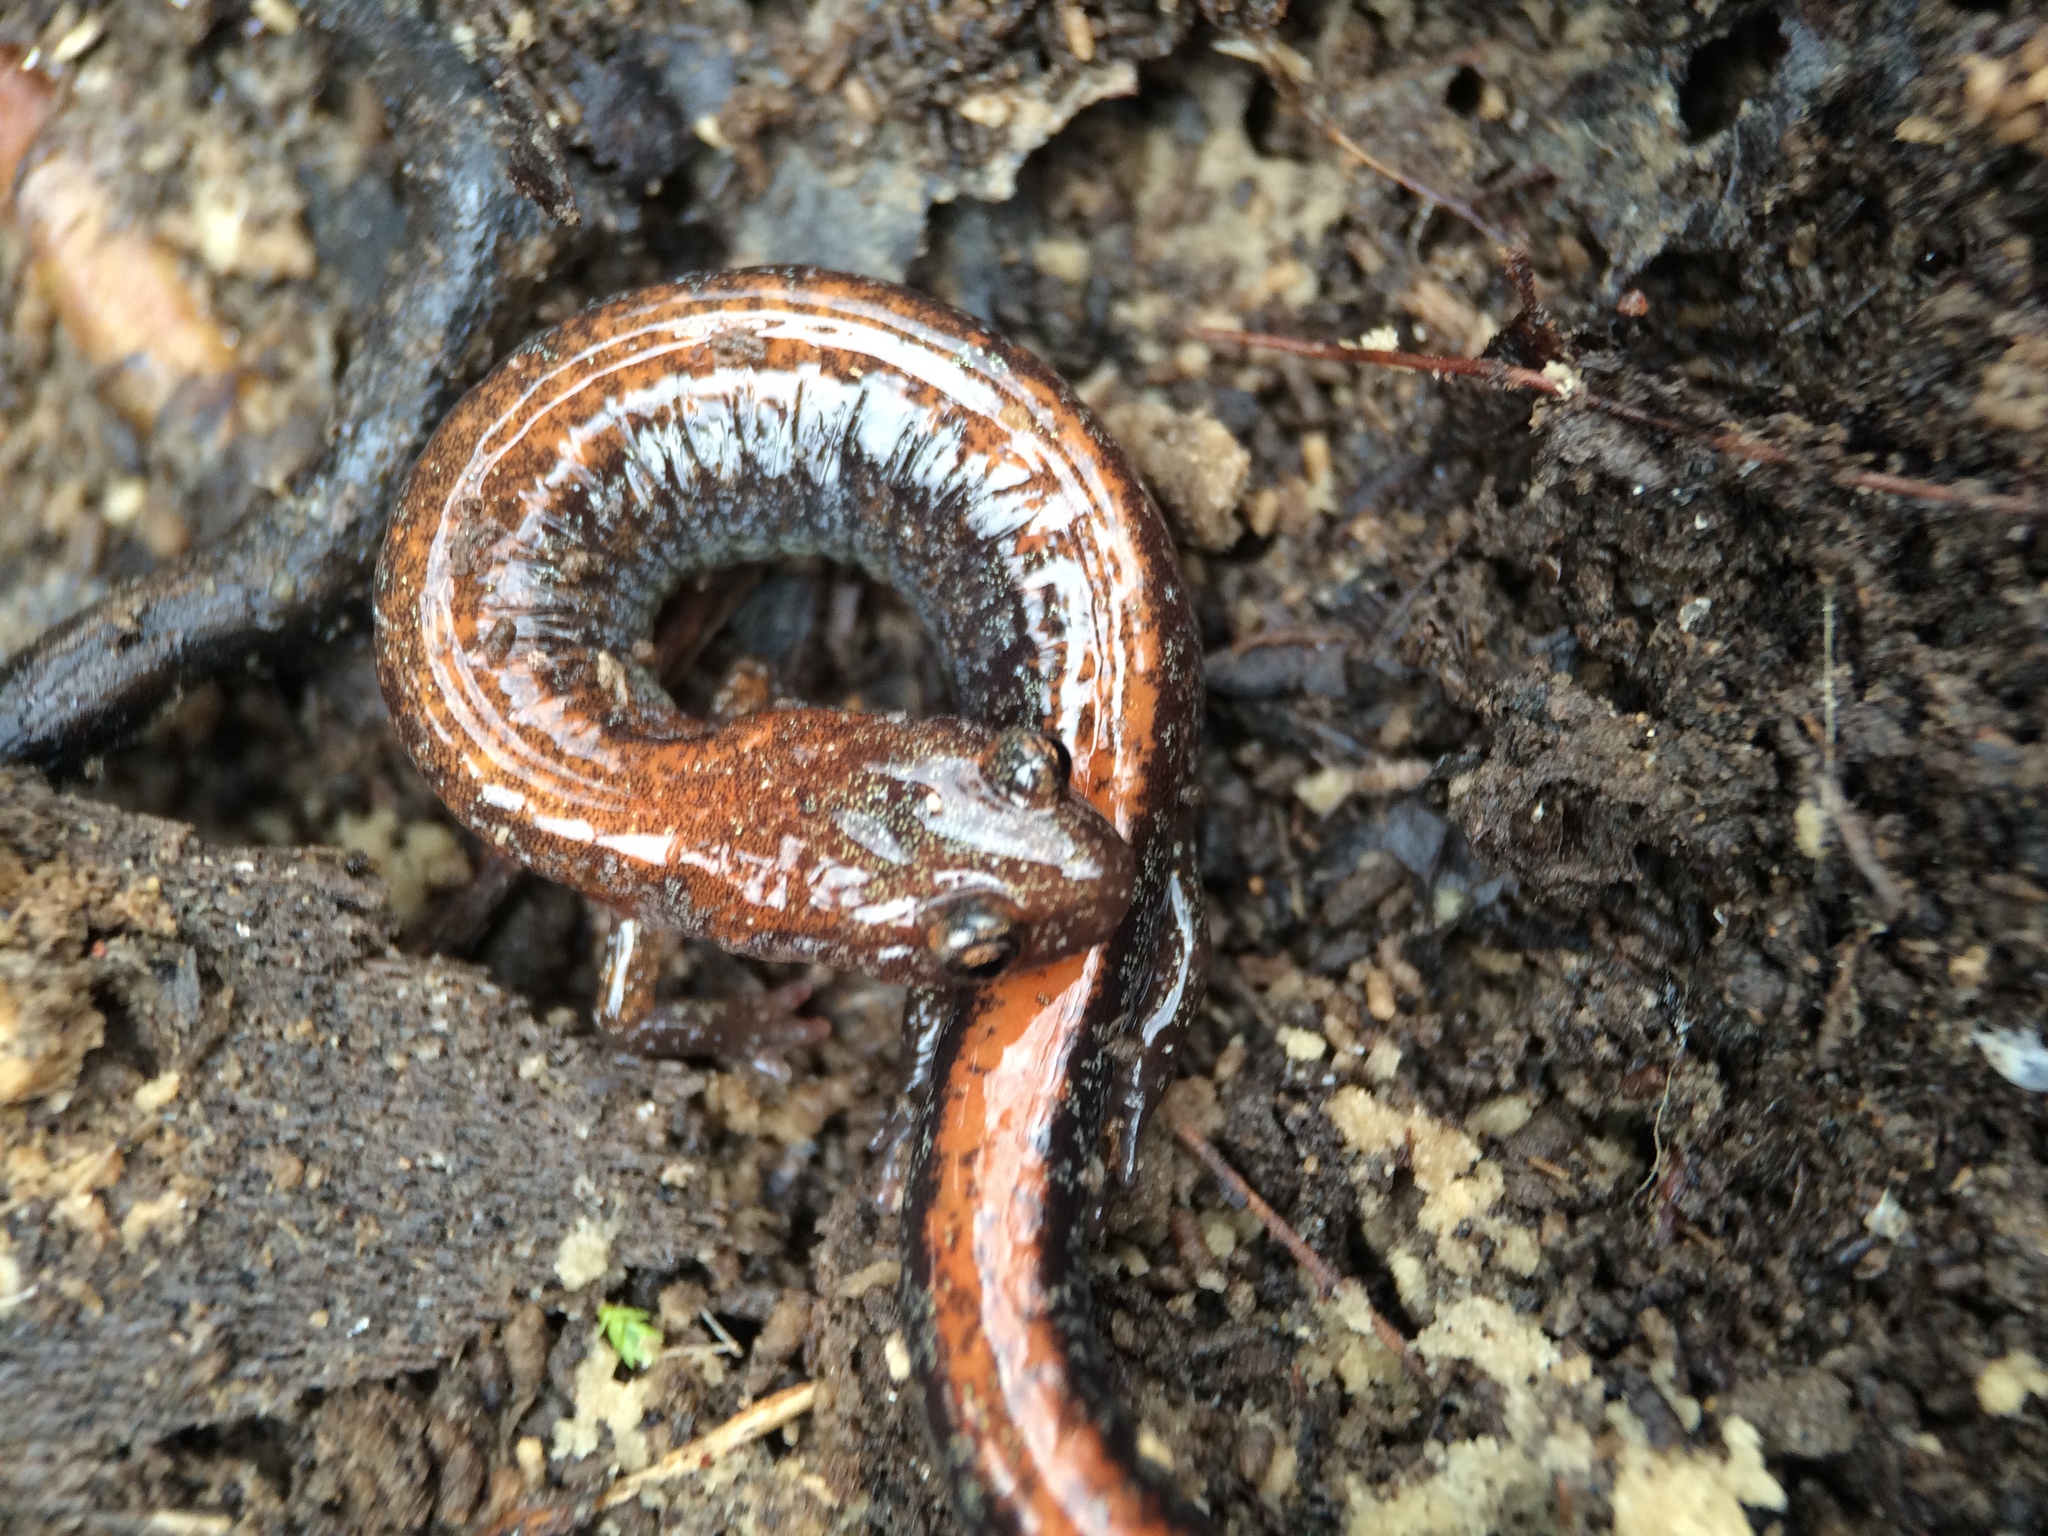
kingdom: Animalia
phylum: Chordata
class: Amphibia
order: Caudata
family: Plethodontidae
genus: Plethodon
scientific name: Plethodon cinereus
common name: Redback salamander
